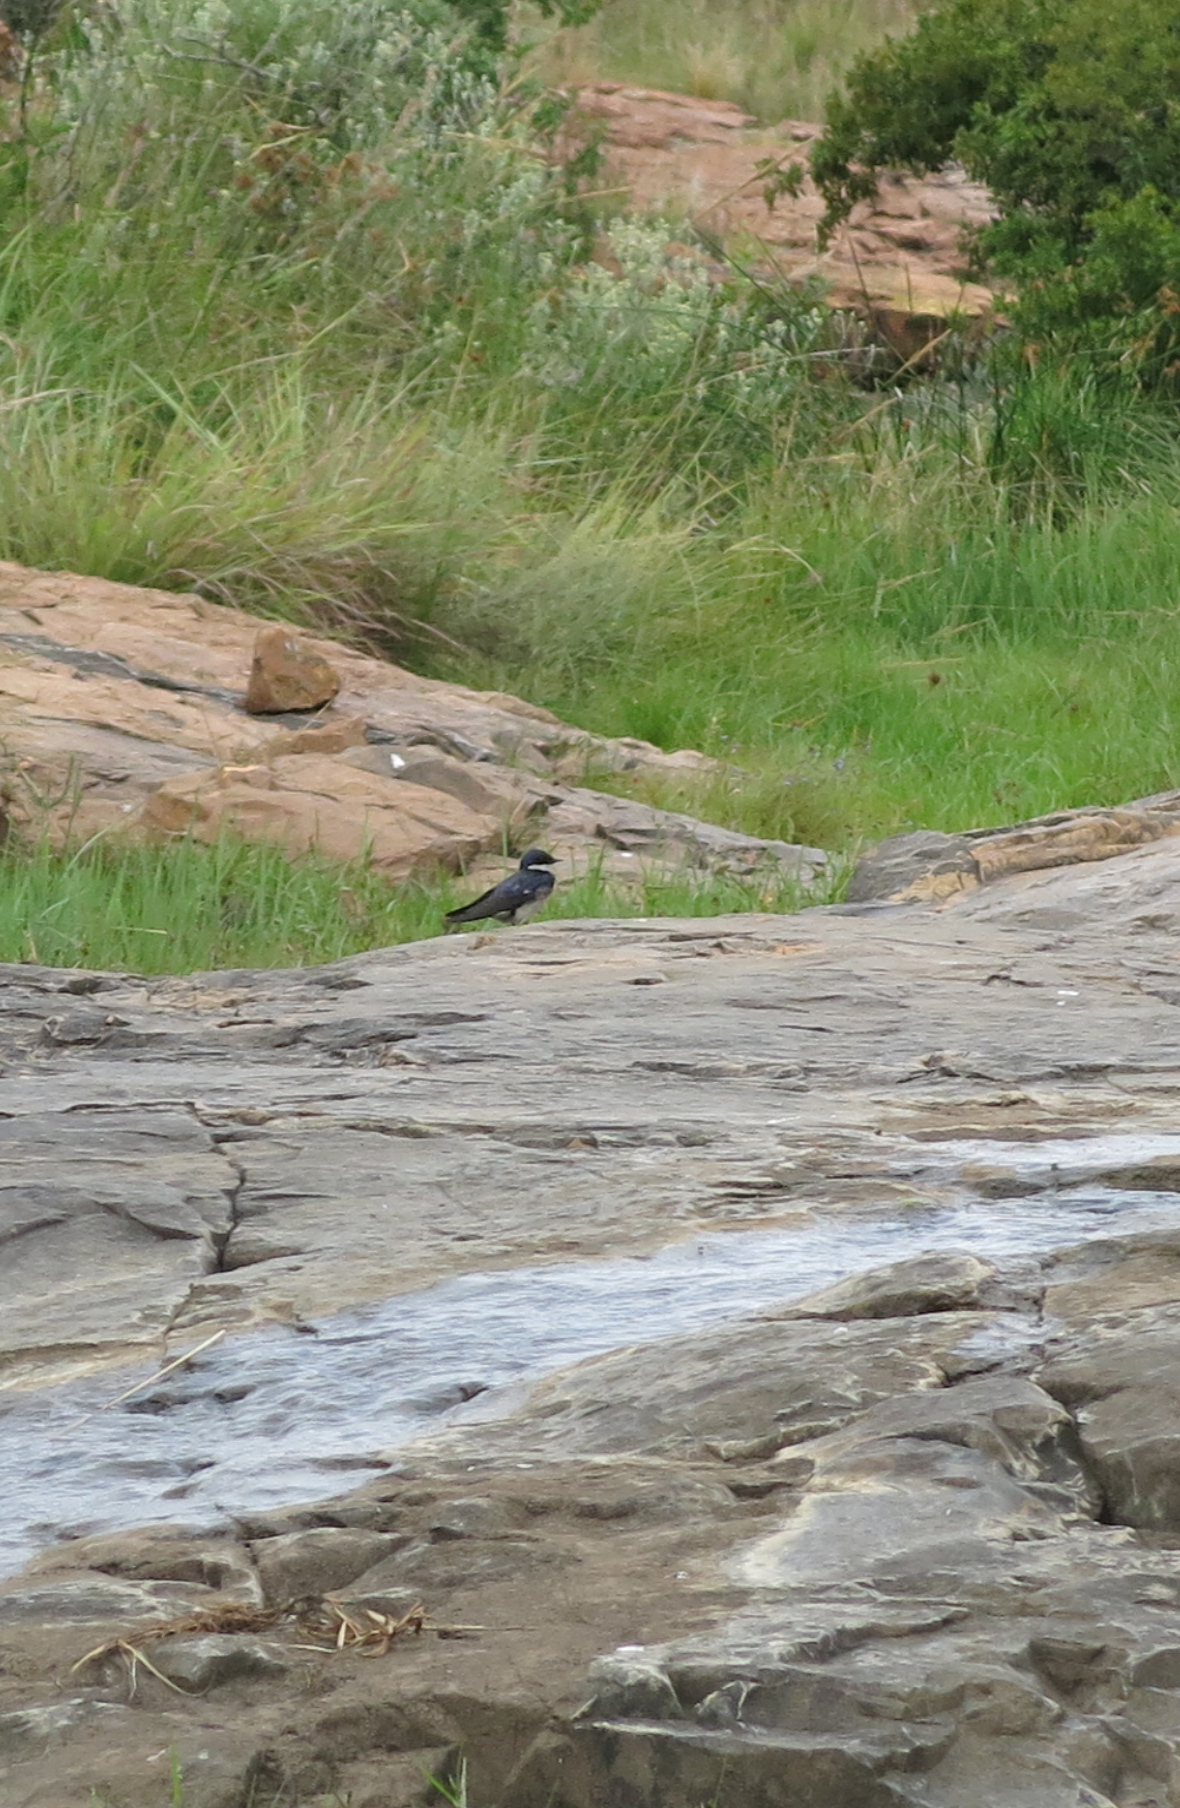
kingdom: Animalia
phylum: Chordata
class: Aves
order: Passeriformes
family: Hirundinidae
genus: Hirundo
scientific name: Hirundo dimidiata
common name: Pearl-breasted swallow
